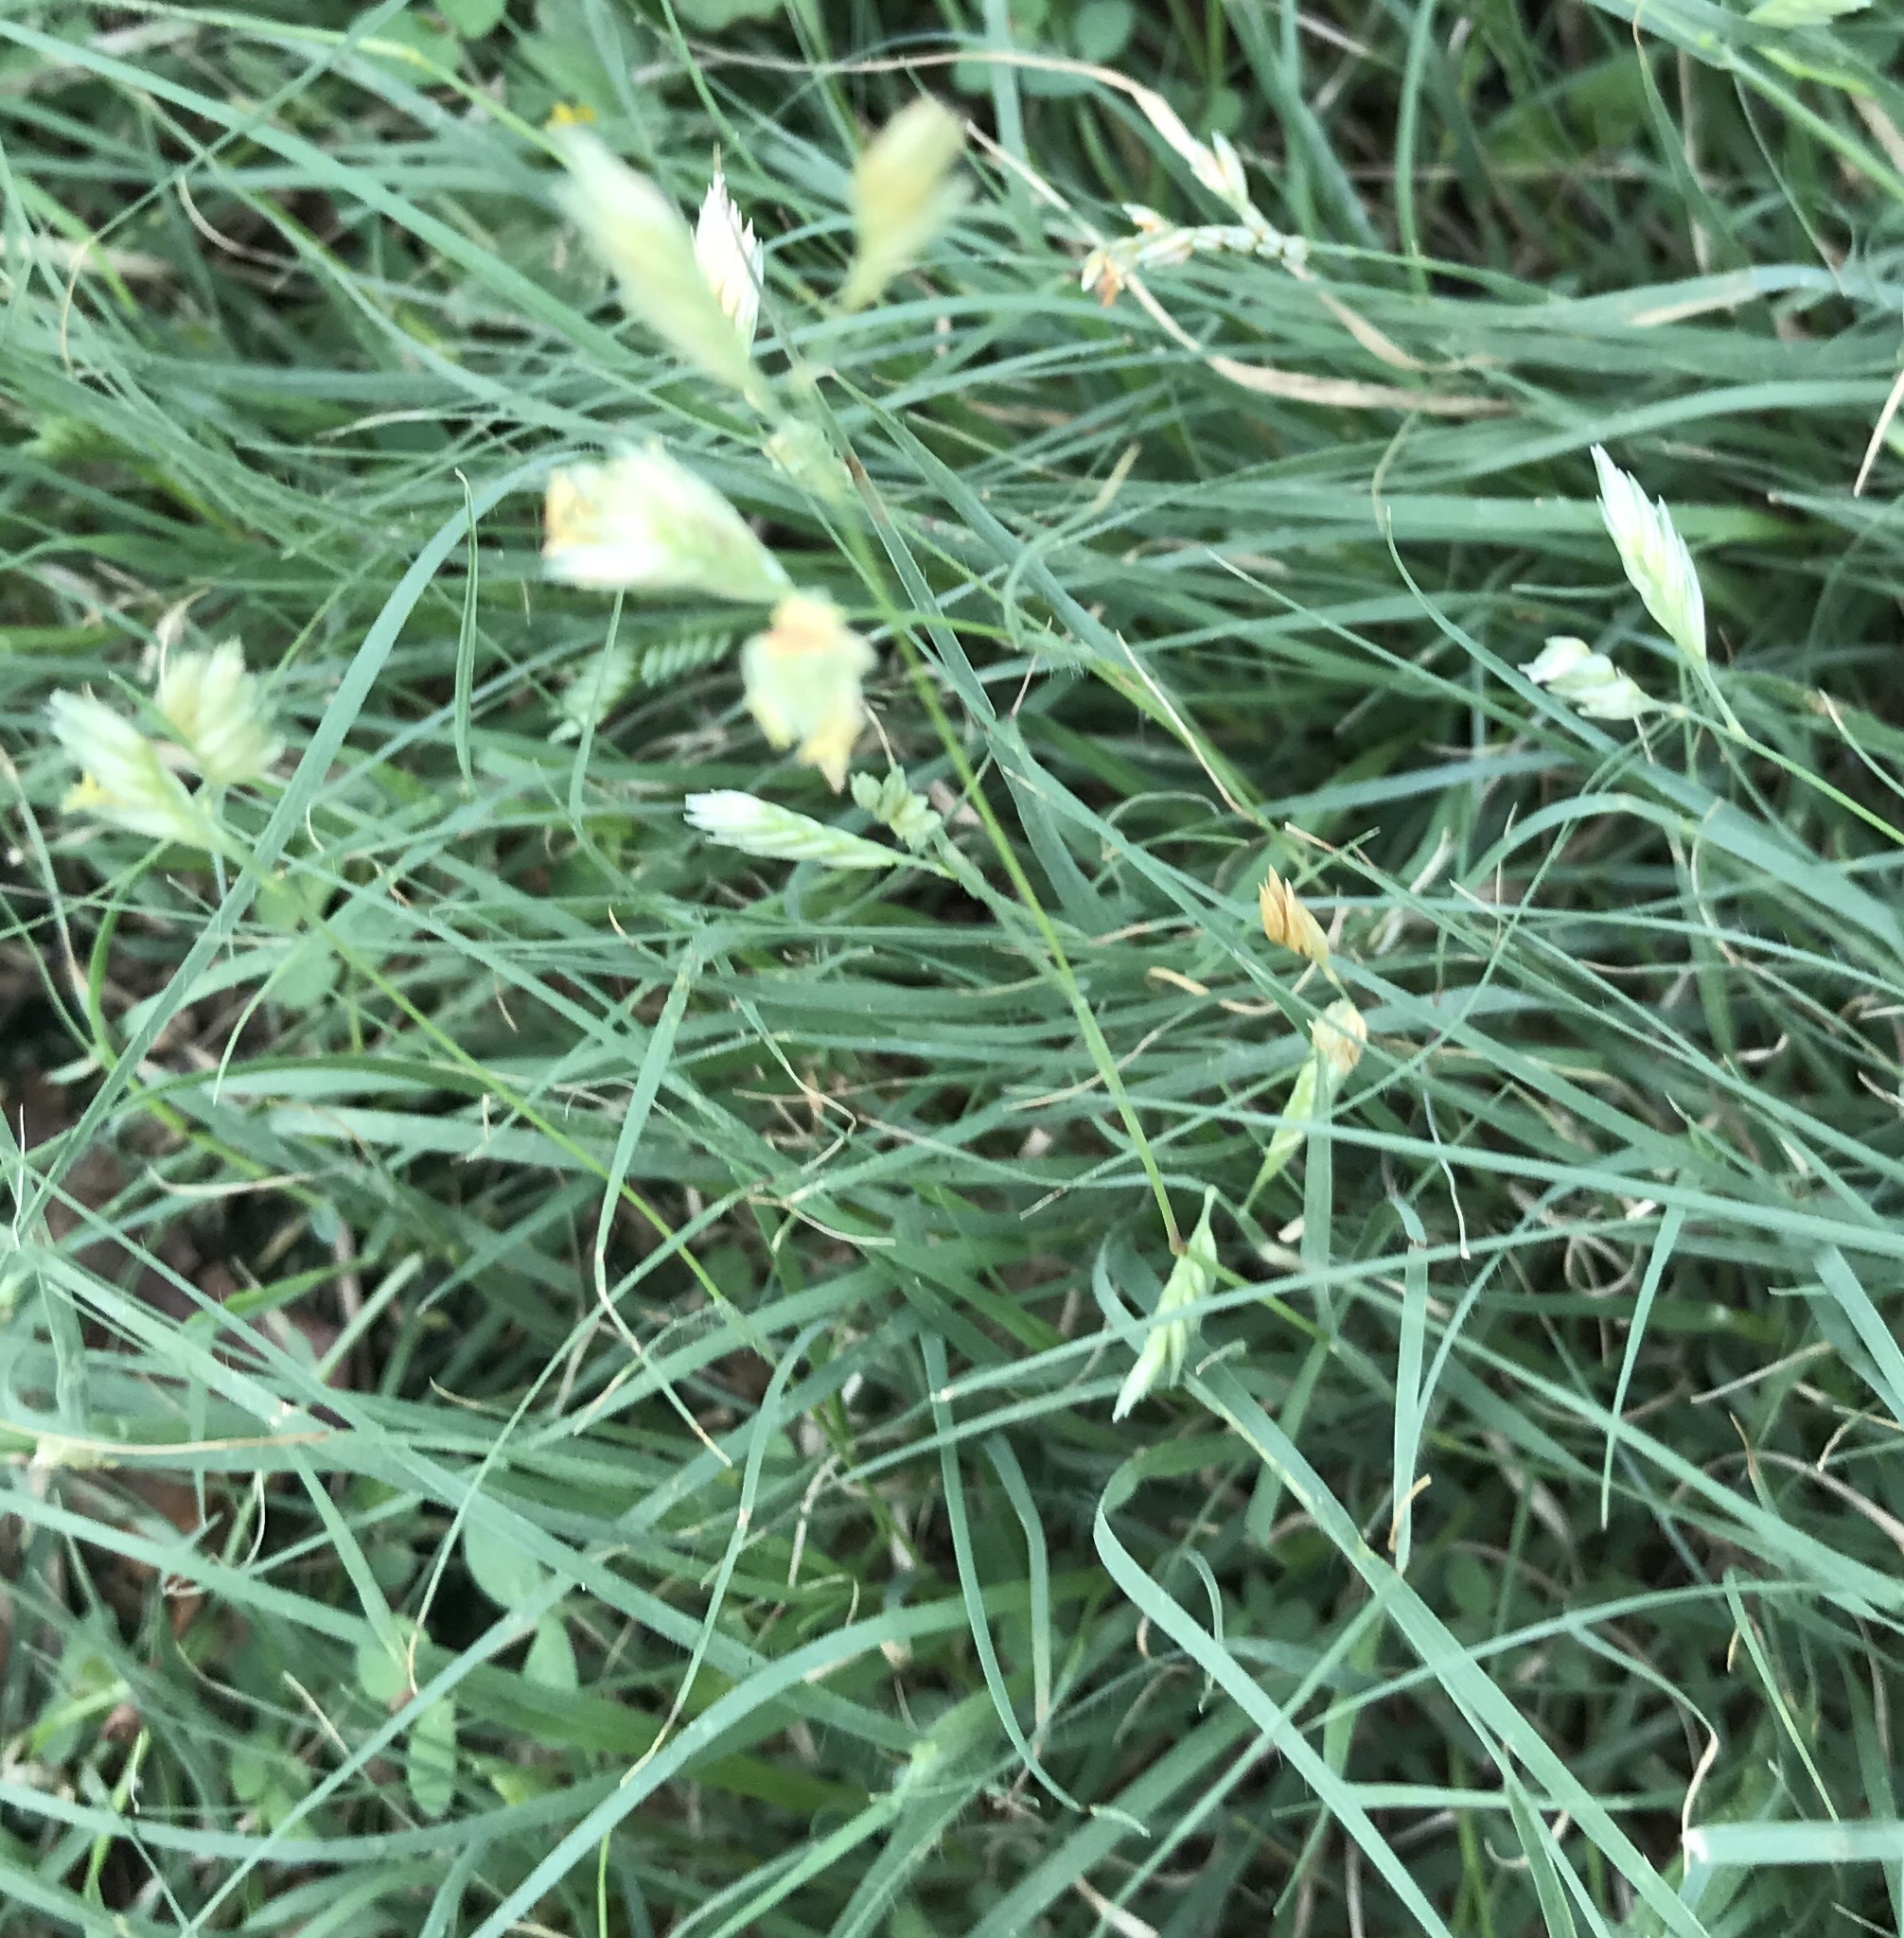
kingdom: Plantae
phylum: Tracheophyta
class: Liliopsida
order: Poales
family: Poaceae
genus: Bouteloua
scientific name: Bouteloua dactyloides
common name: Buffalo grass
